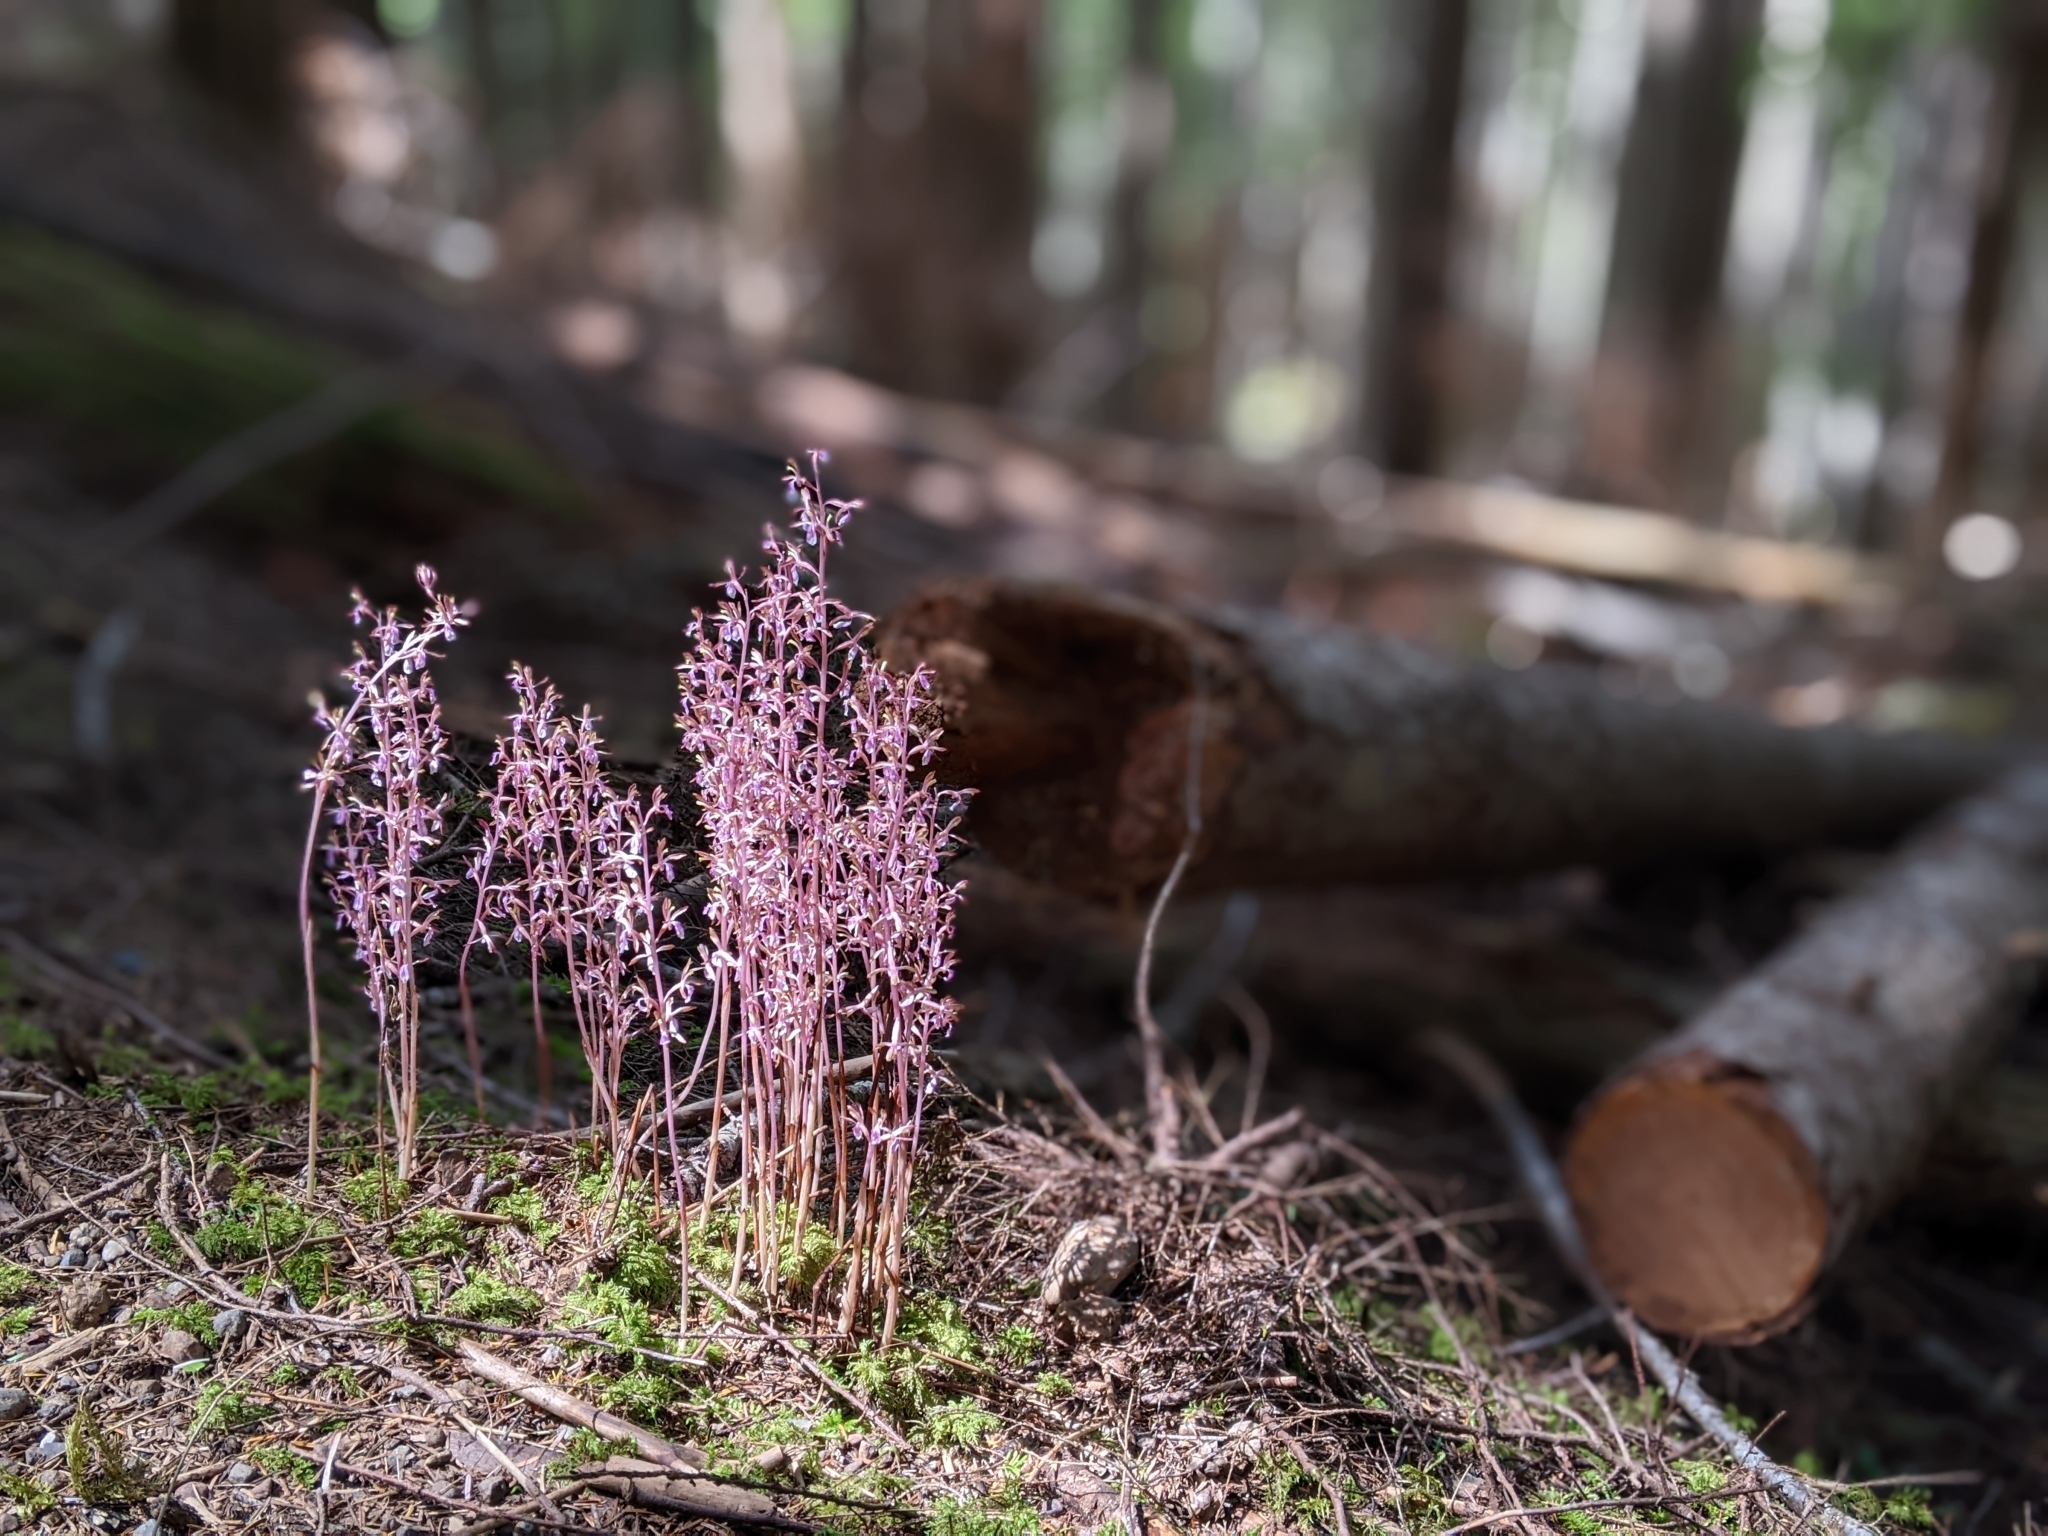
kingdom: Plantae
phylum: Tracheophyta
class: Liliopsida
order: Asparagales
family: Orchidaceae
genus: Corallorhiza
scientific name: Corallorhiza mertensiana
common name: Pacific coralroot
